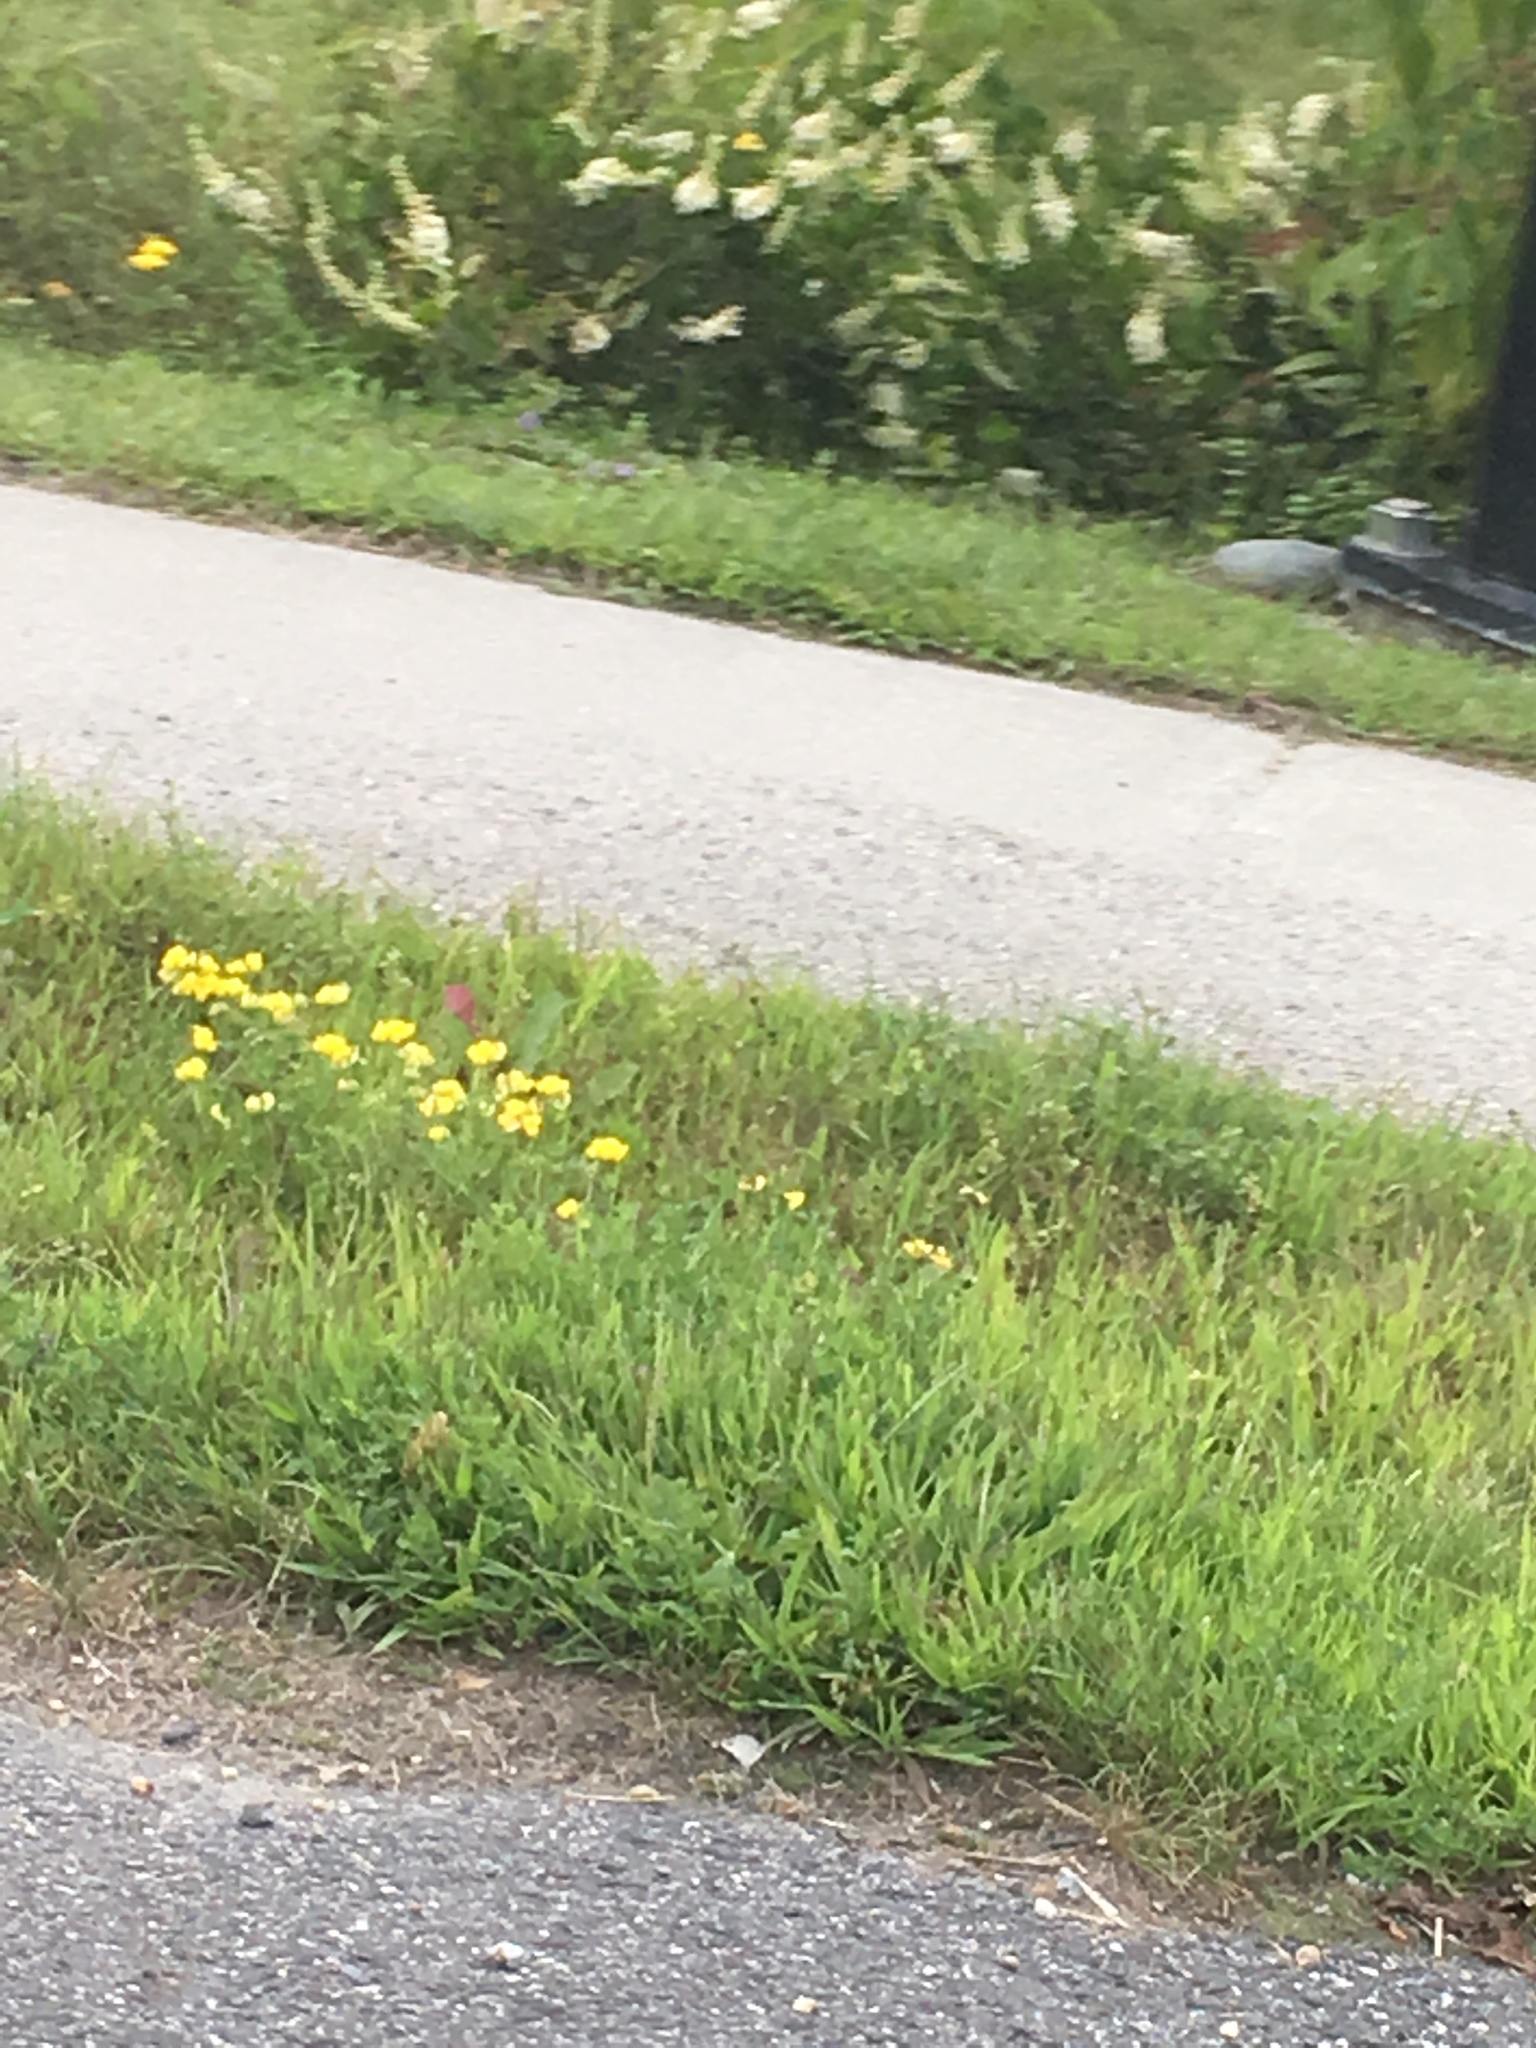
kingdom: Plantae
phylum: Tracheophyta
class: Magnoliopsida
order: Fabales
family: Fabaceae
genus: Lotus
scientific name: Lotus corniculatus
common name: Common bird's-foot-trefoil
